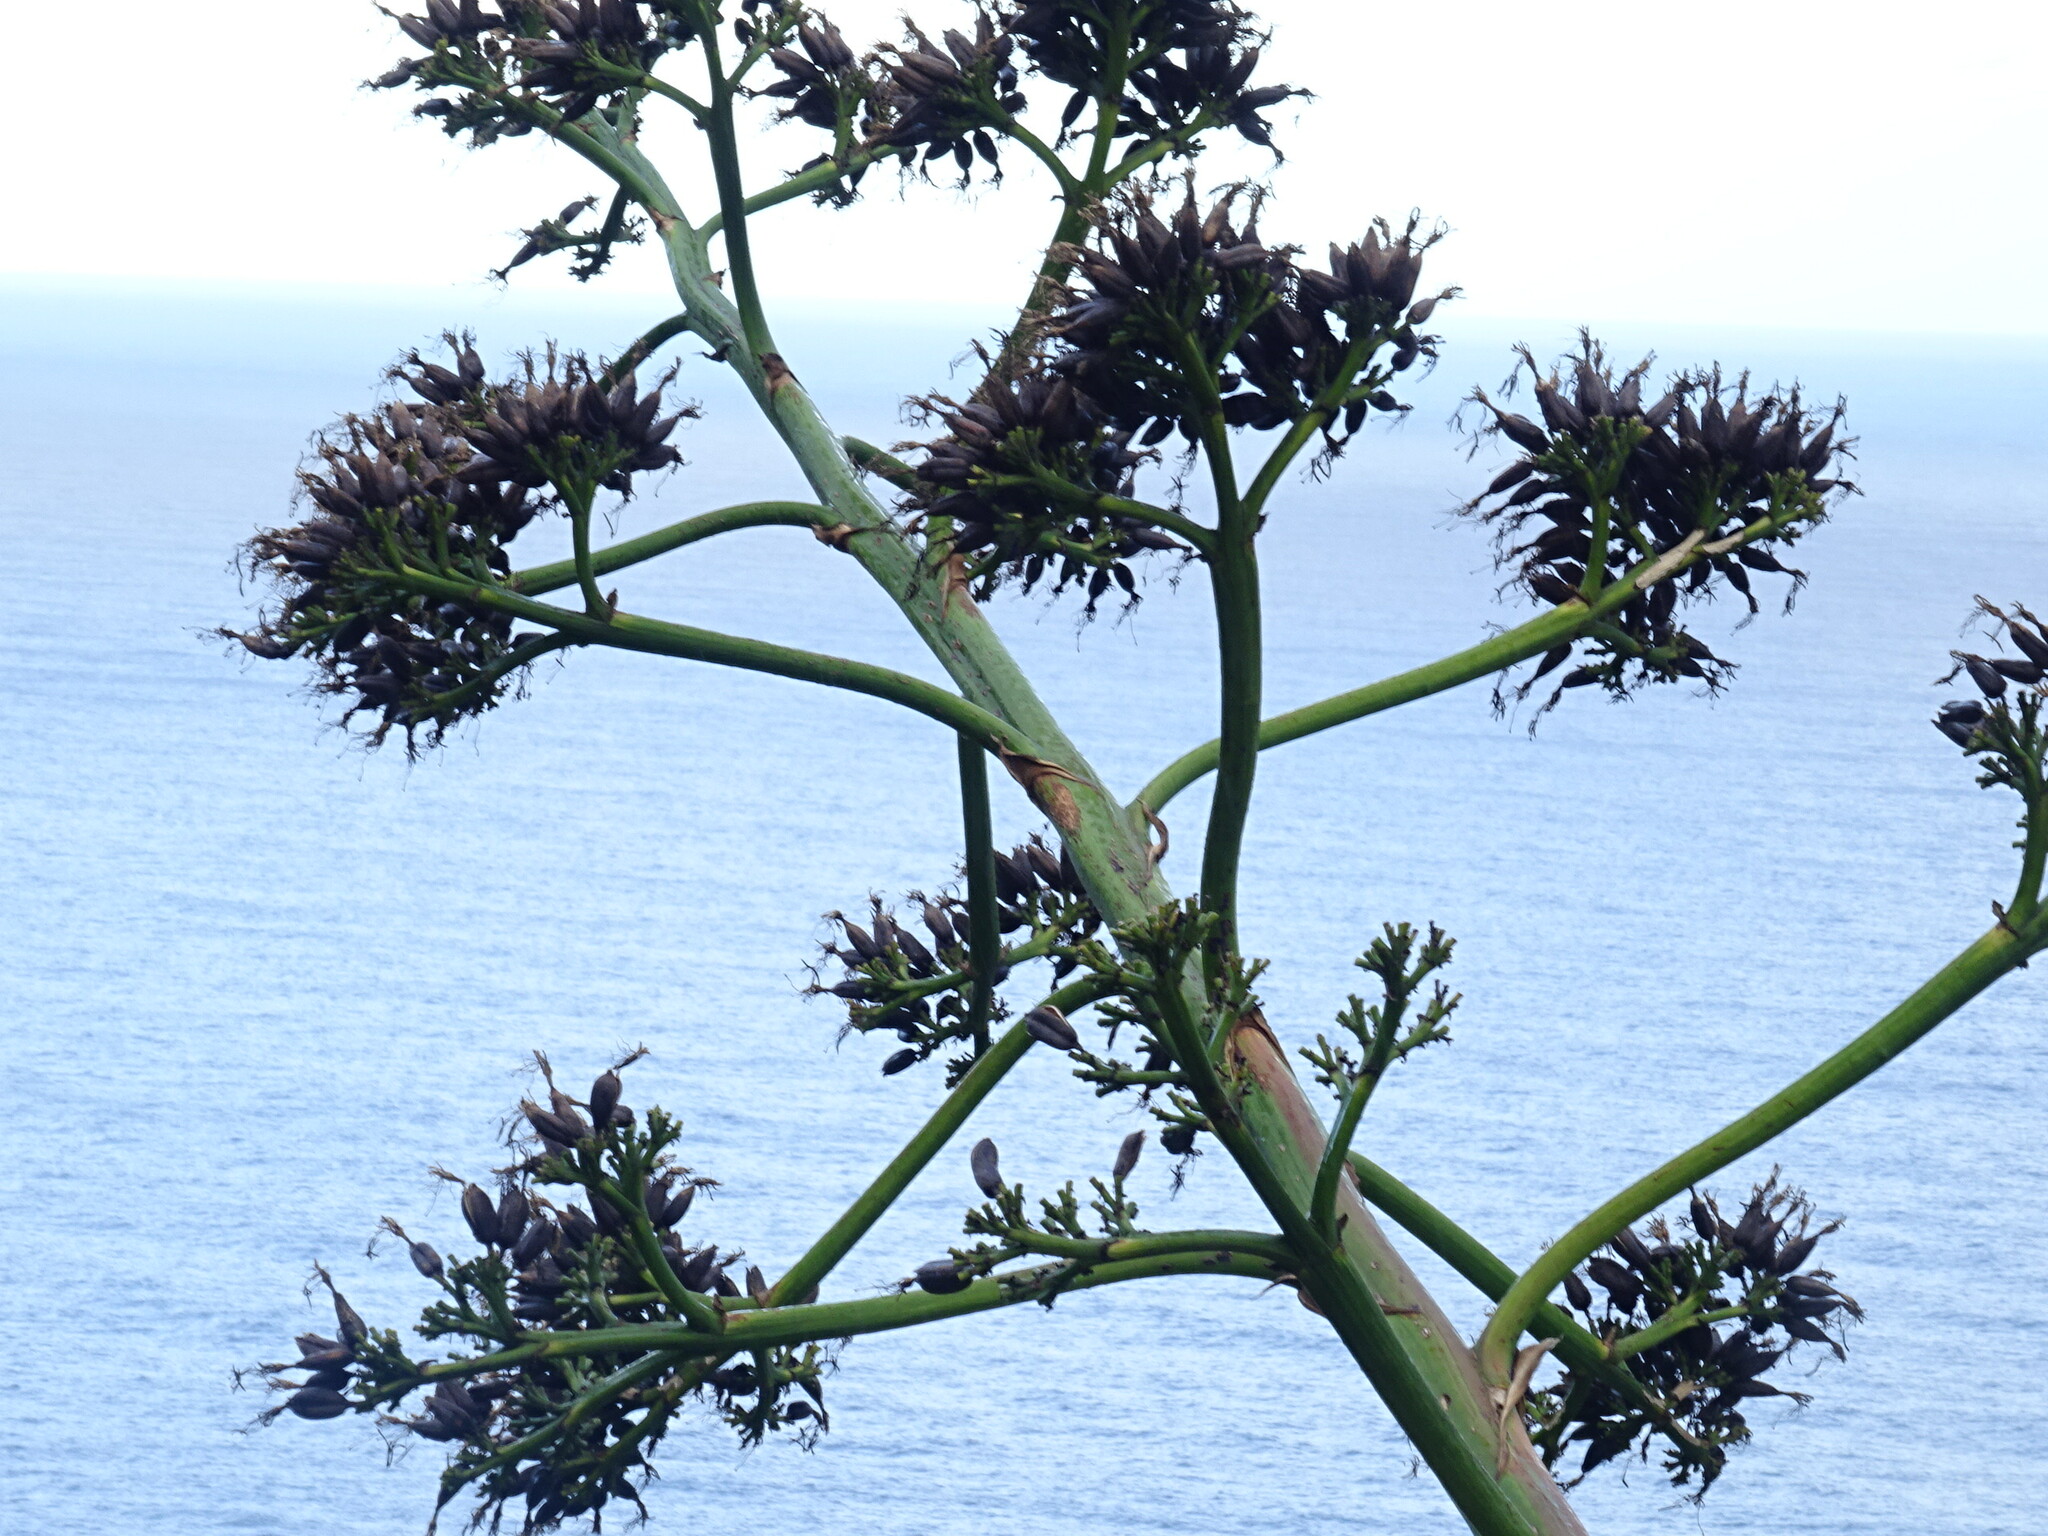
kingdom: Plantae
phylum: Tracheophyta
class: Liliopsida
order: Asparagales
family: Asparagaceae
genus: Agave
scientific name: Agave americana
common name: Centuryplant
